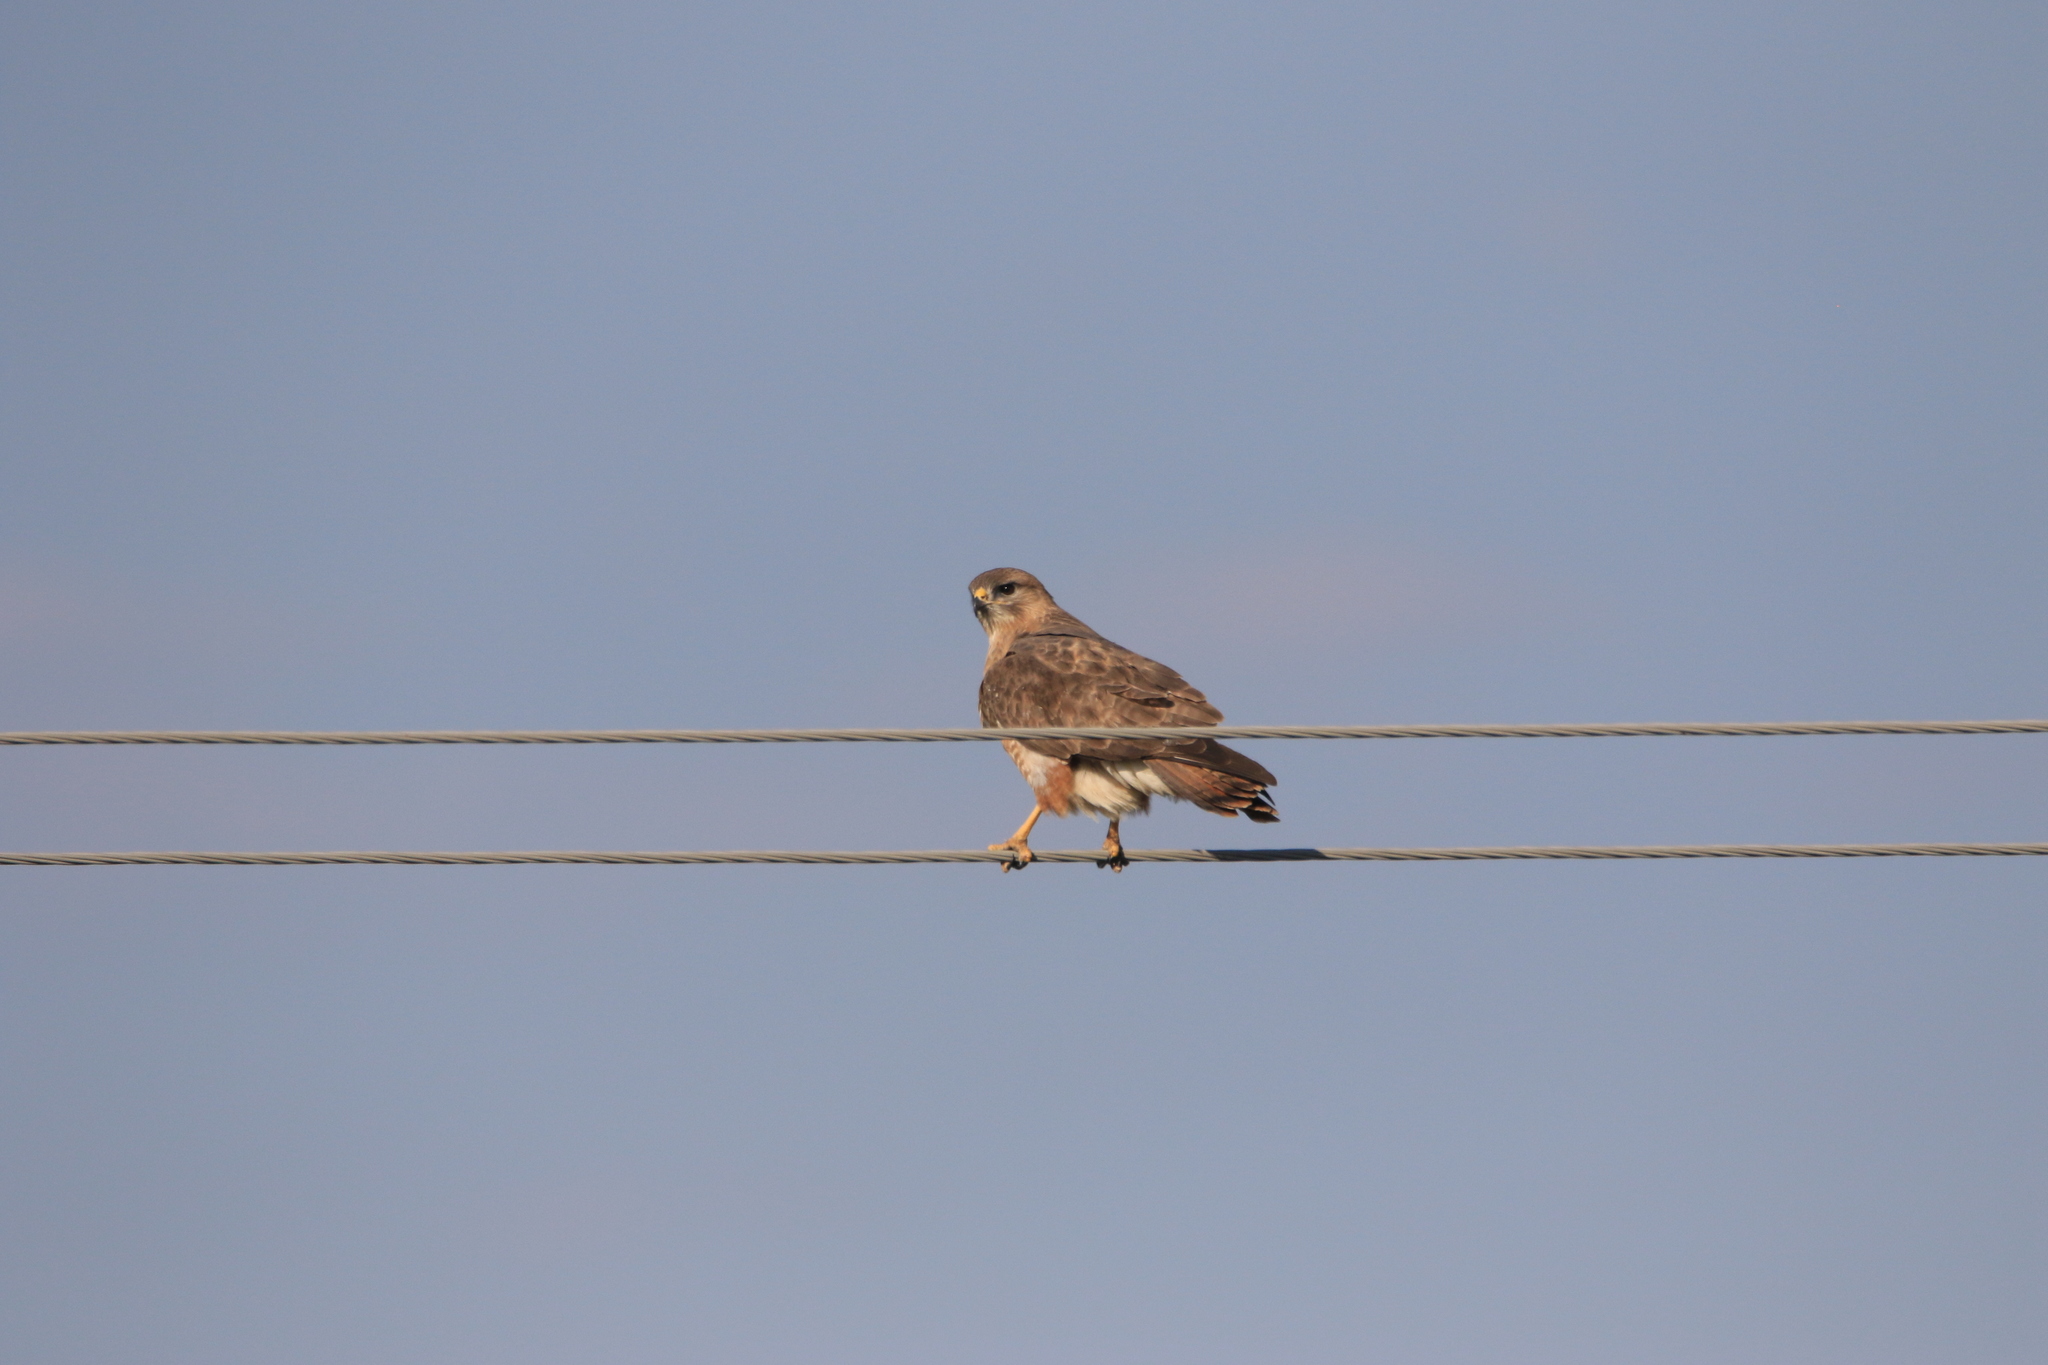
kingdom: Animalia
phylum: Chordata
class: Aves
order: Accipitriformes
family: Accipitridae
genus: Buteo
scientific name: Buteo buteo
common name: Common buzzard
